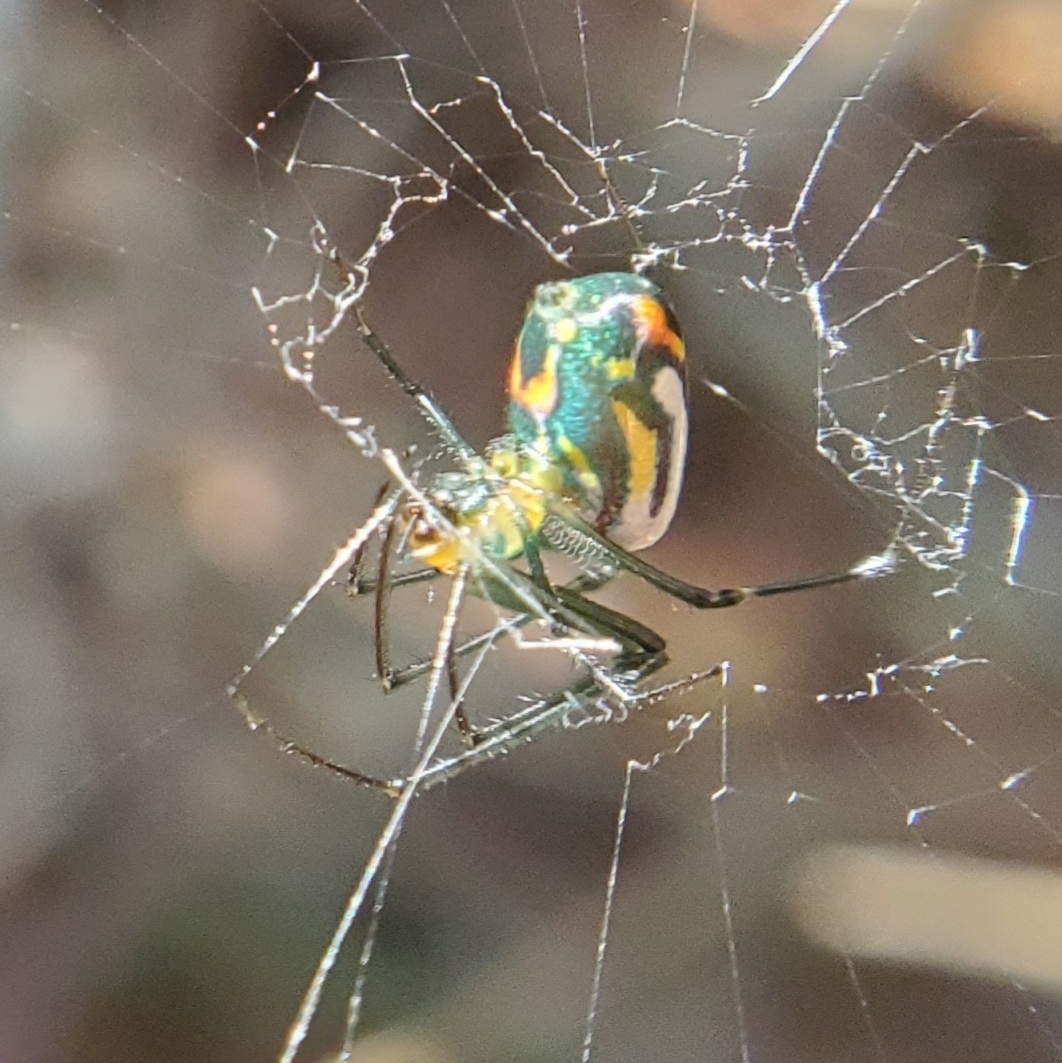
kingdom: Animalia
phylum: Arthropoda
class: Arachnida
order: Araneae
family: Tetragnathidae
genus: Leucauge
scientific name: Leucauge argyrobapta
